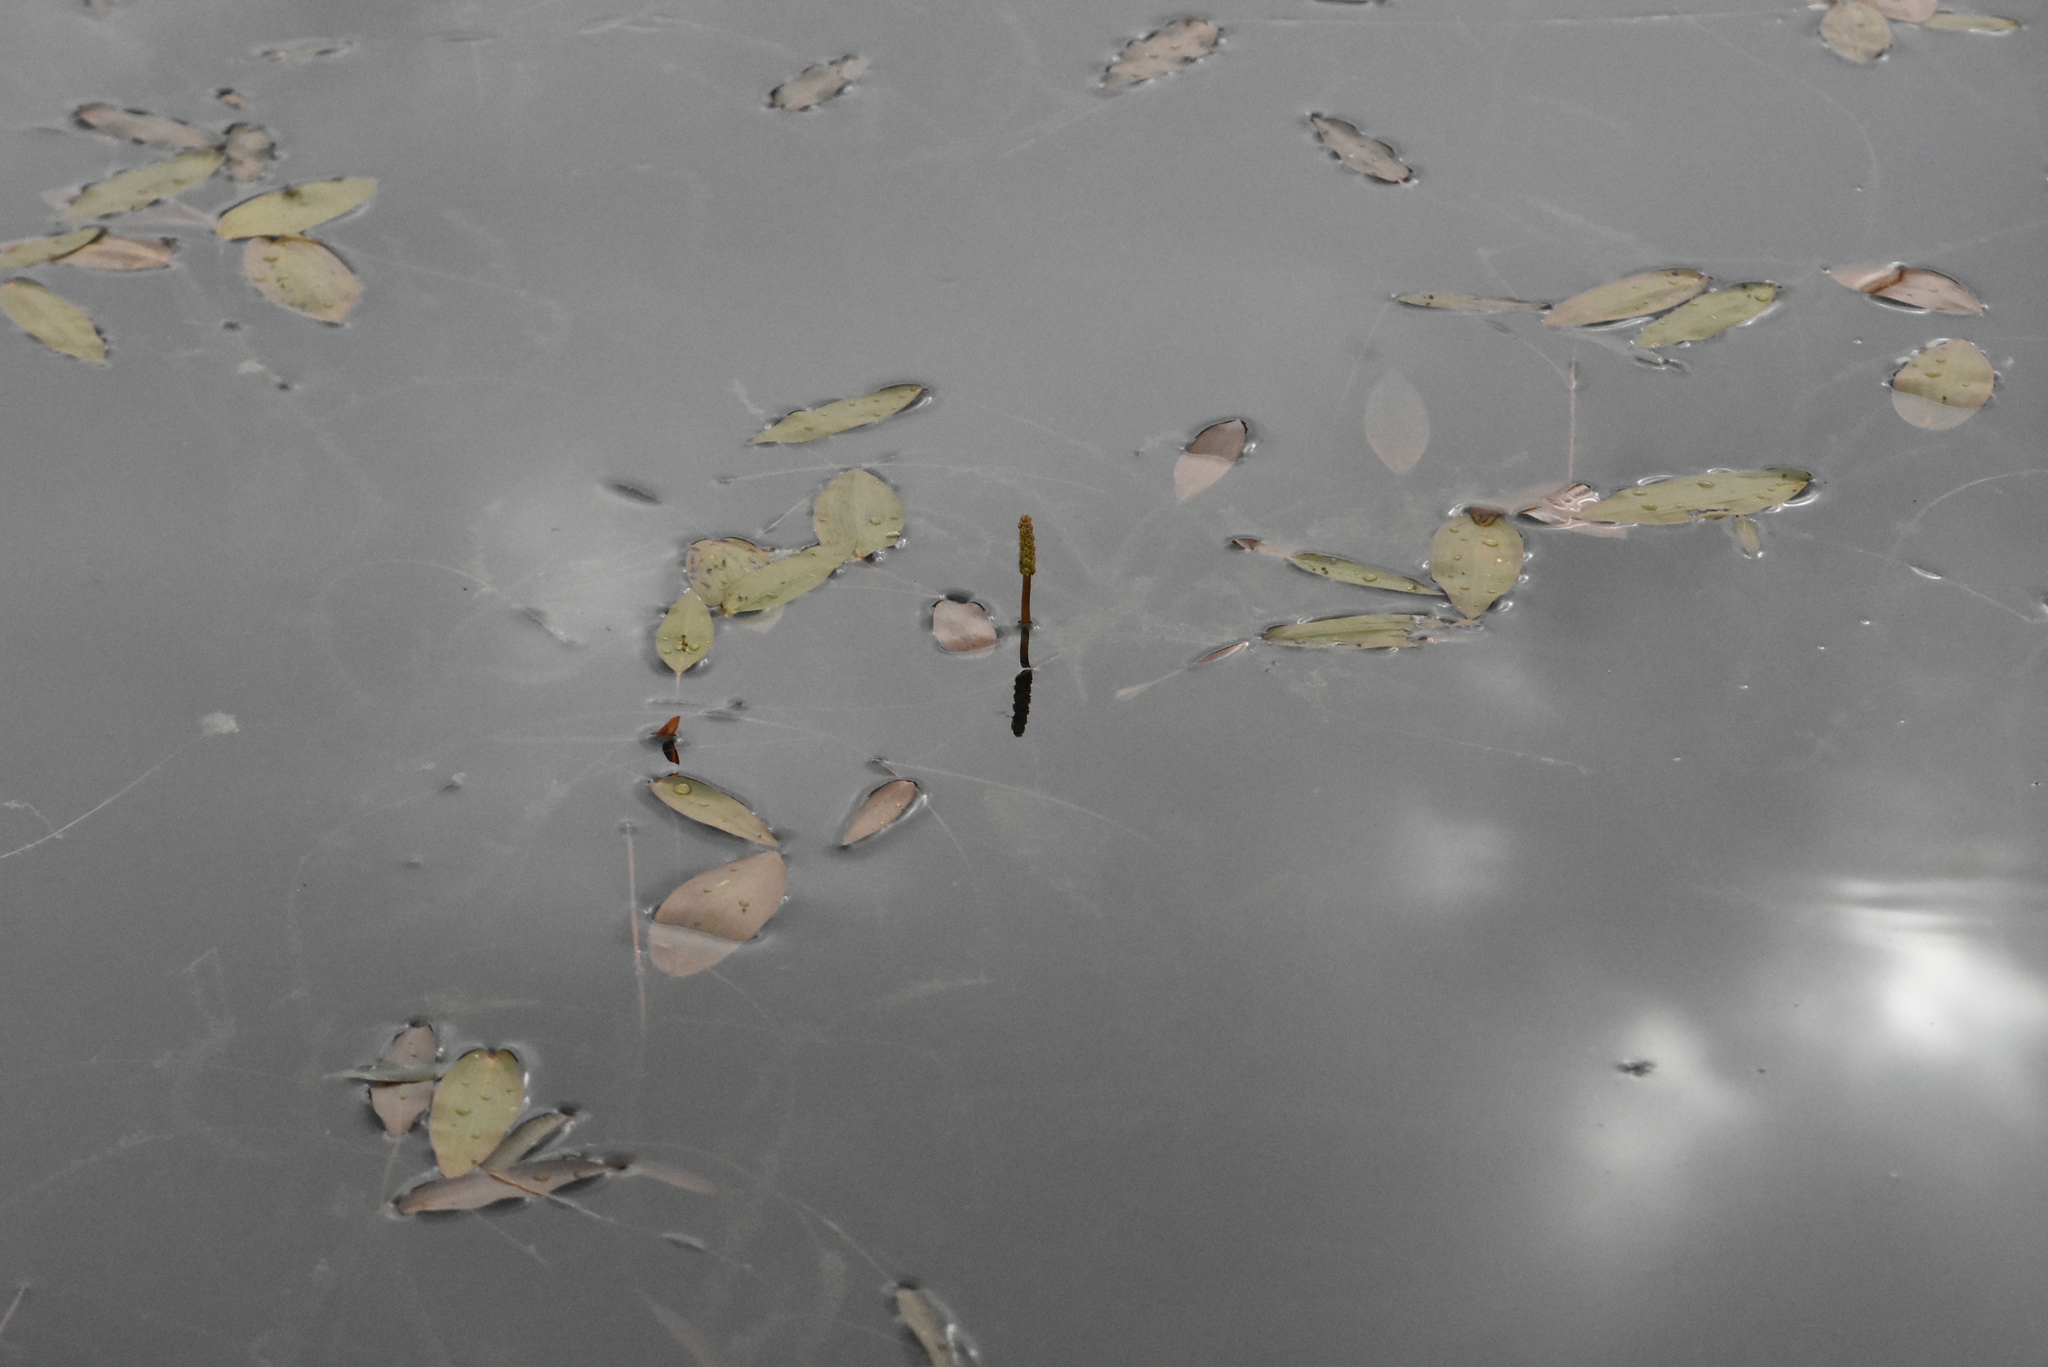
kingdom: Plantae
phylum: Tracheophyta
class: Liliopsida
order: Alismatales
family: Potamogetonaceae
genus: Potamogeton
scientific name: Potamogeton natans
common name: Broad-leaved pondweed
